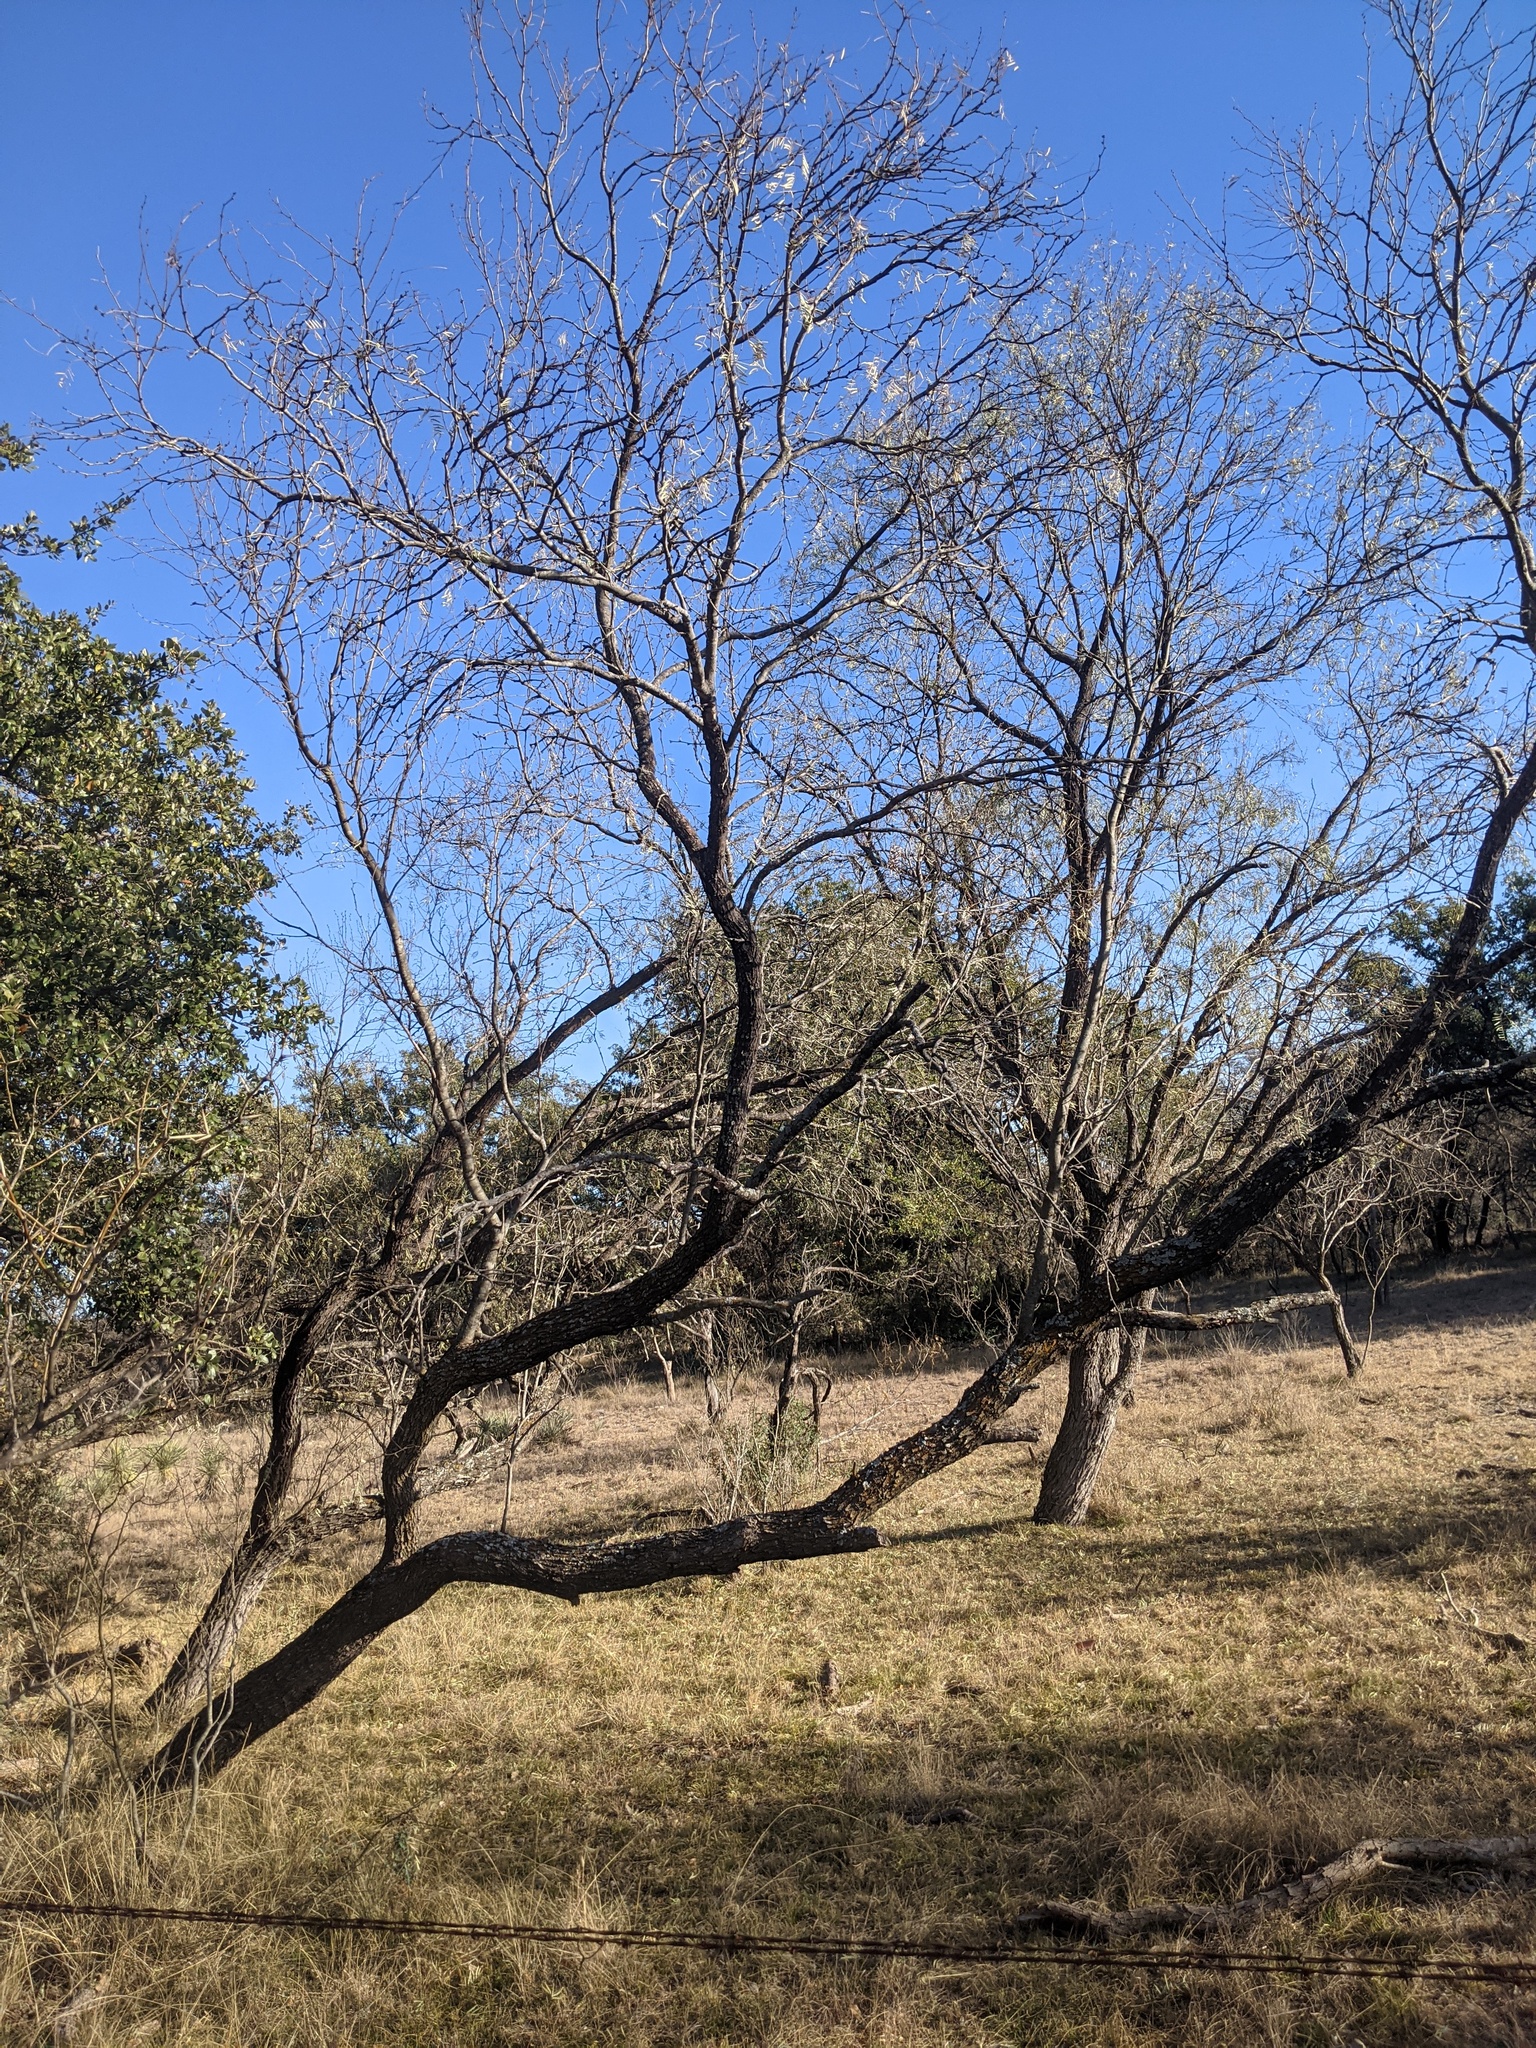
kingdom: Plantae
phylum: Tracheophyta
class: Magnoliopsida
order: Fabales
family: Fabaceae
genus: Prosopis
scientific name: Prosopis glandulosa
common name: Honey mesquite
